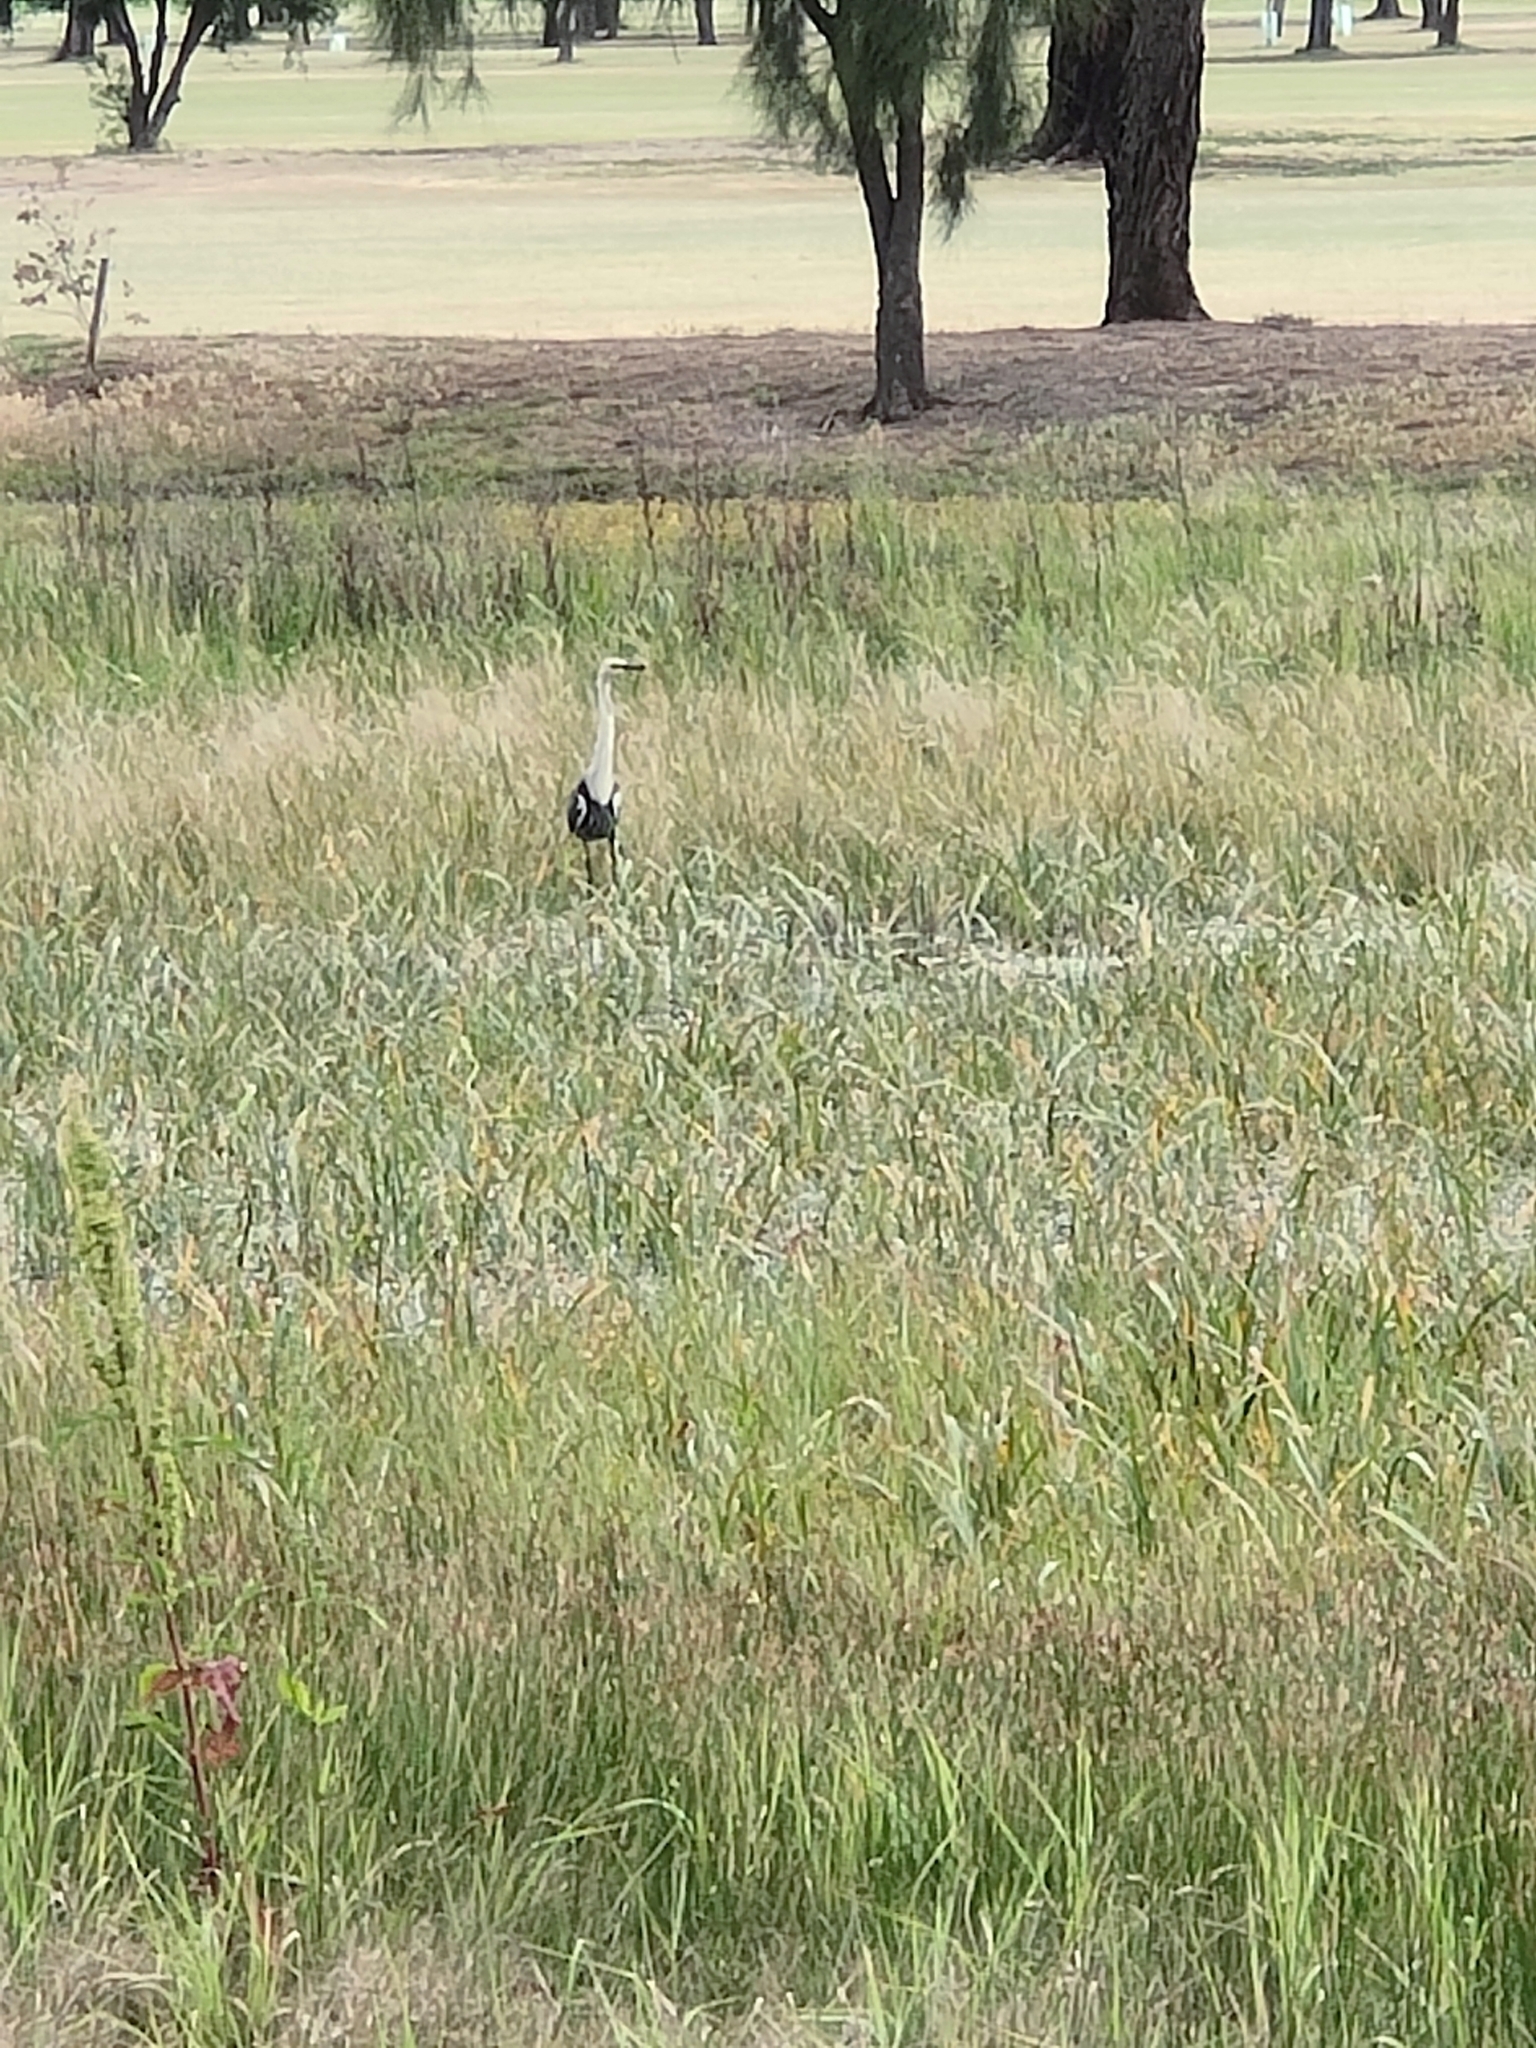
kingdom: Animalia
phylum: Chordata
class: Aves
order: Pelecaniformes
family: Ardeidae
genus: Ardea
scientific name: Ardea pacifica
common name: White-necked heron
